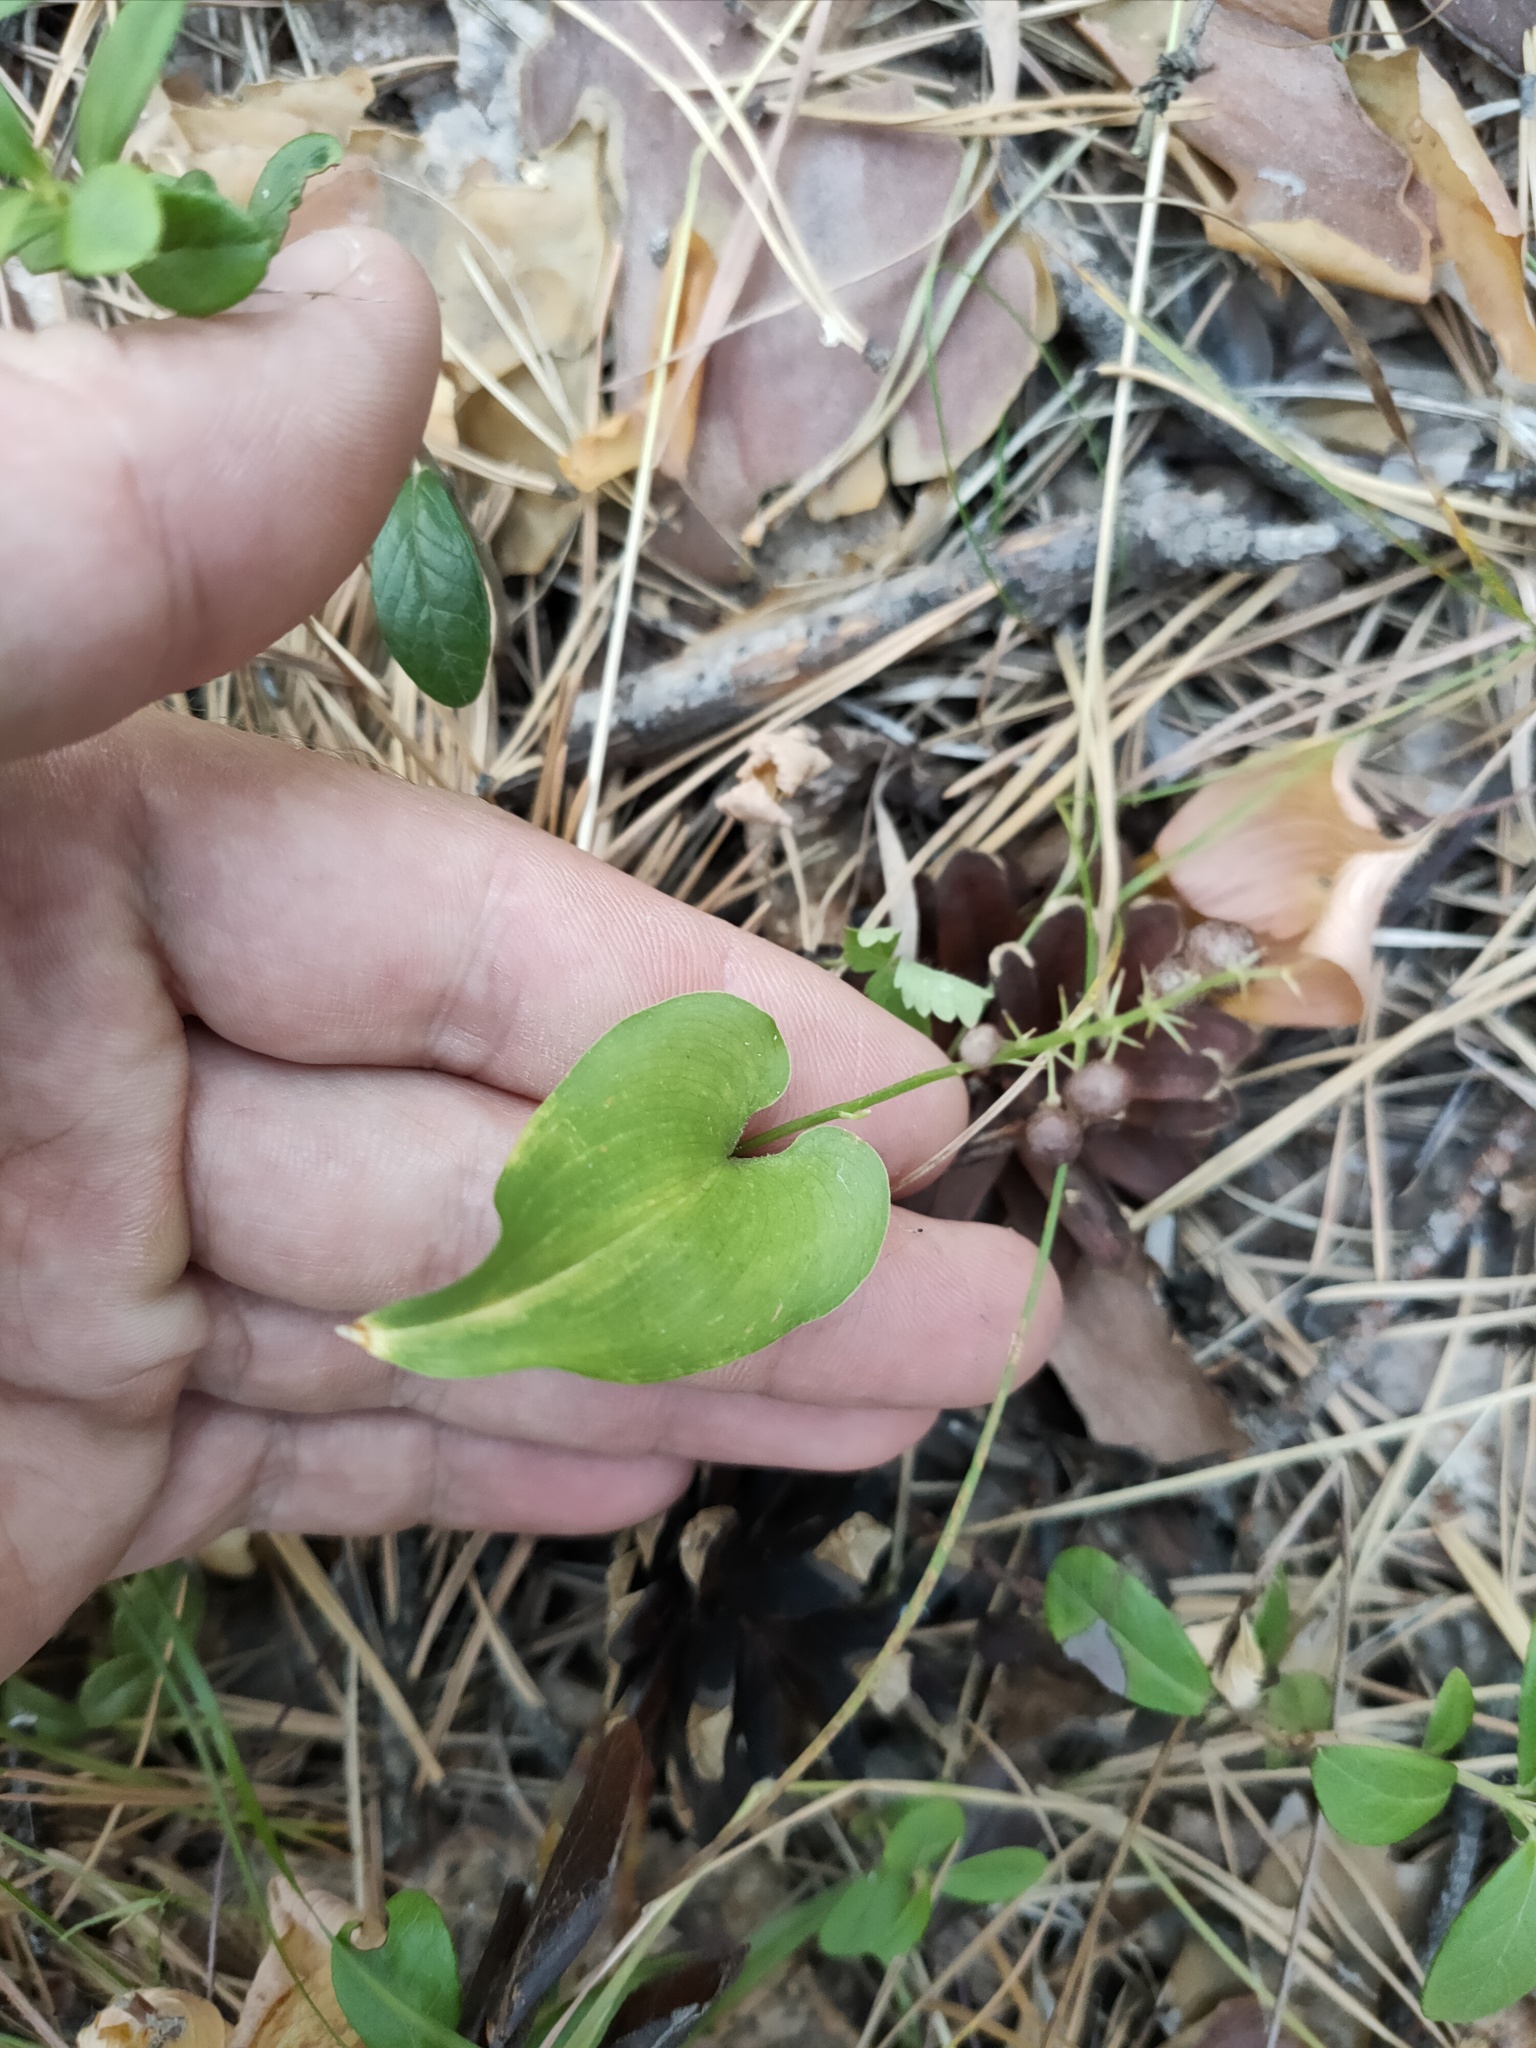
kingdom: Plantae
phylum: Tracheophyta
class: Liliopsida
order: Asparagales
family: Asparagaceae
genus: Maianthemum
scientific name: Maianthemum bifolium
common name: May lily
